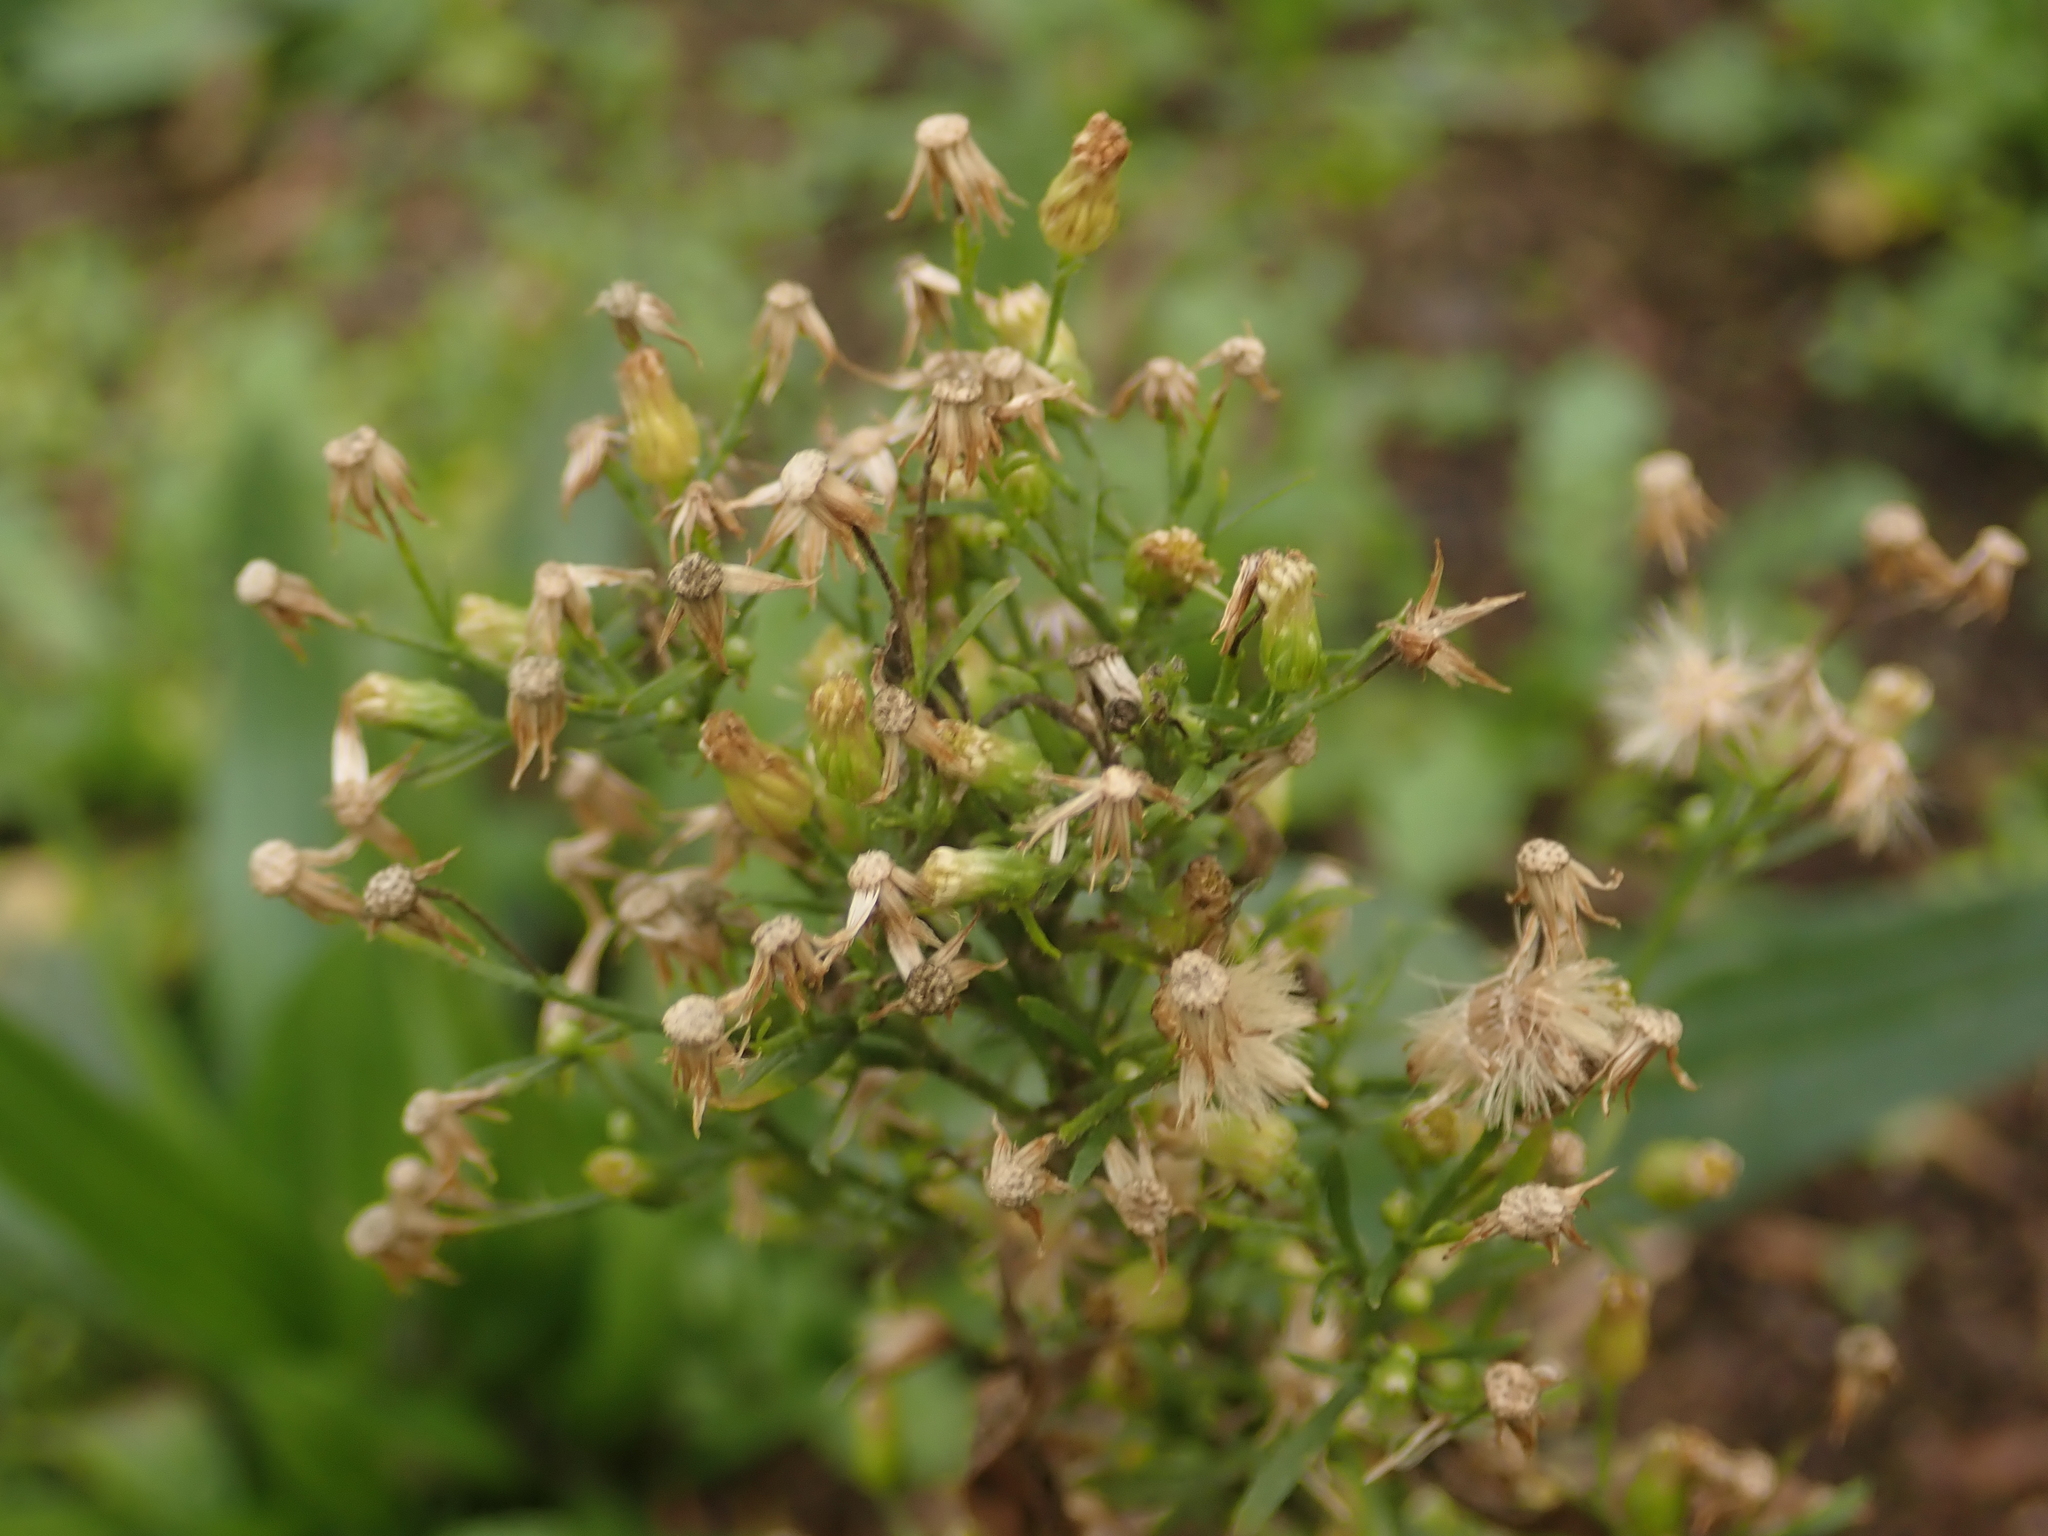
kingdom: Plantae
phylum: Tracheophyta
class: Magnoliopsida
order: Asterales
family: Asteraceae
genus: Erigeron
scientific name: Erigeron canadensis
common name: Canadian fleabane
